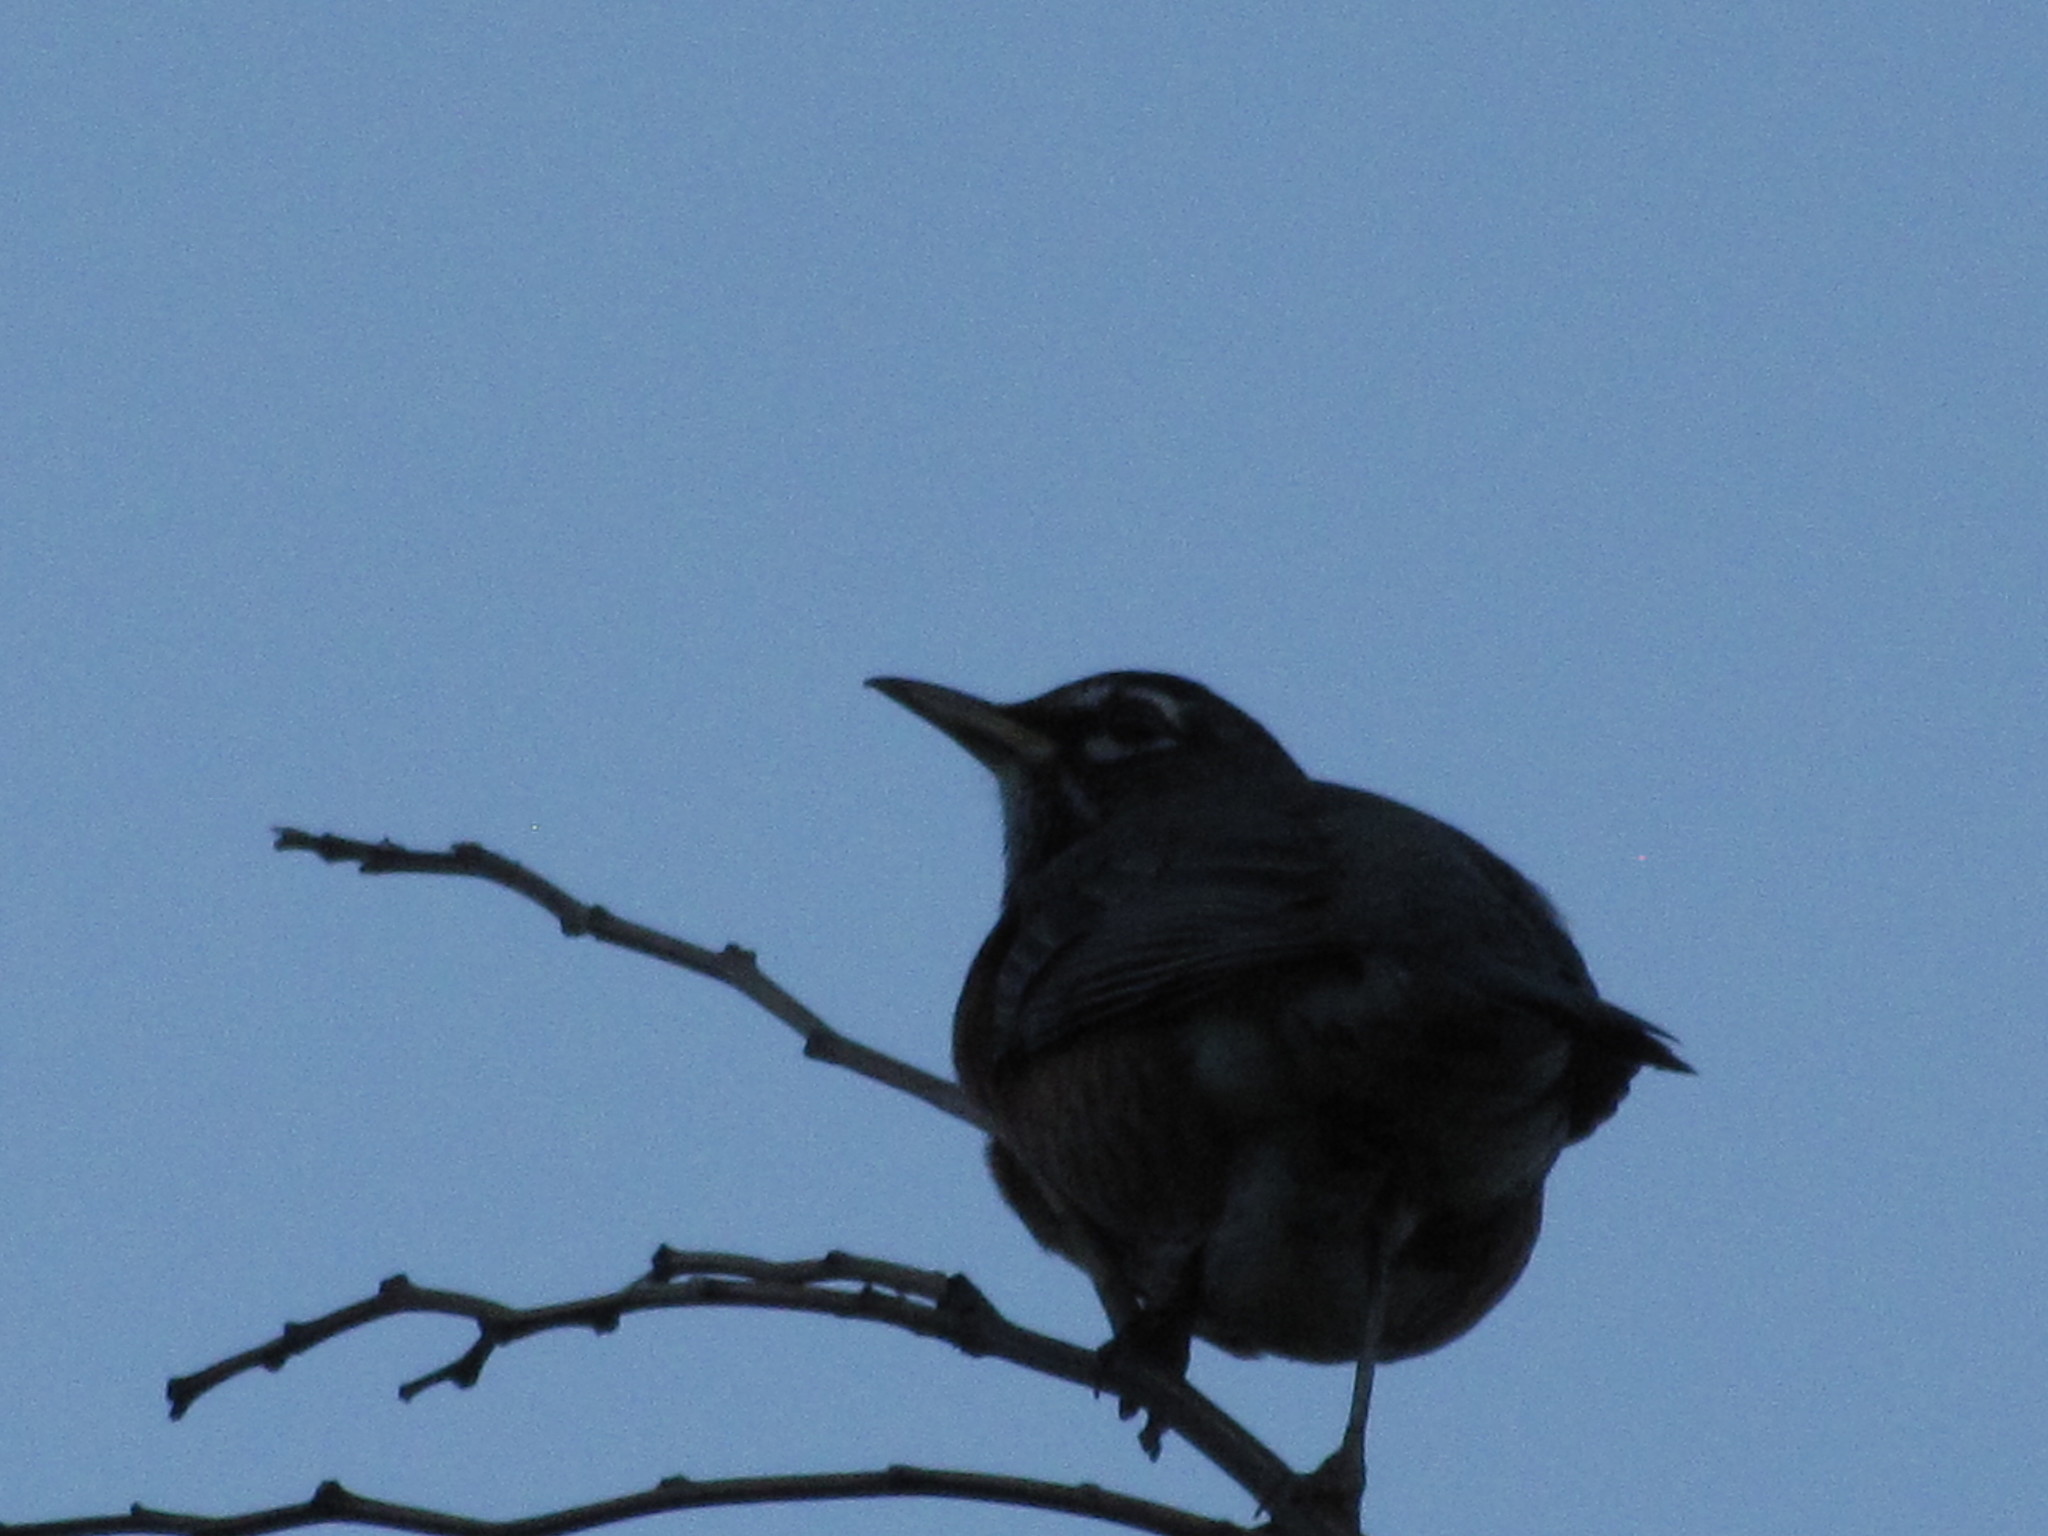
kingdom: Animalia
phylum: Chordata
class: Aves
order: Passeriformes
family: Turdidae
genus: Turdus
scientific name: Turdus migratorius
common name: American robin
